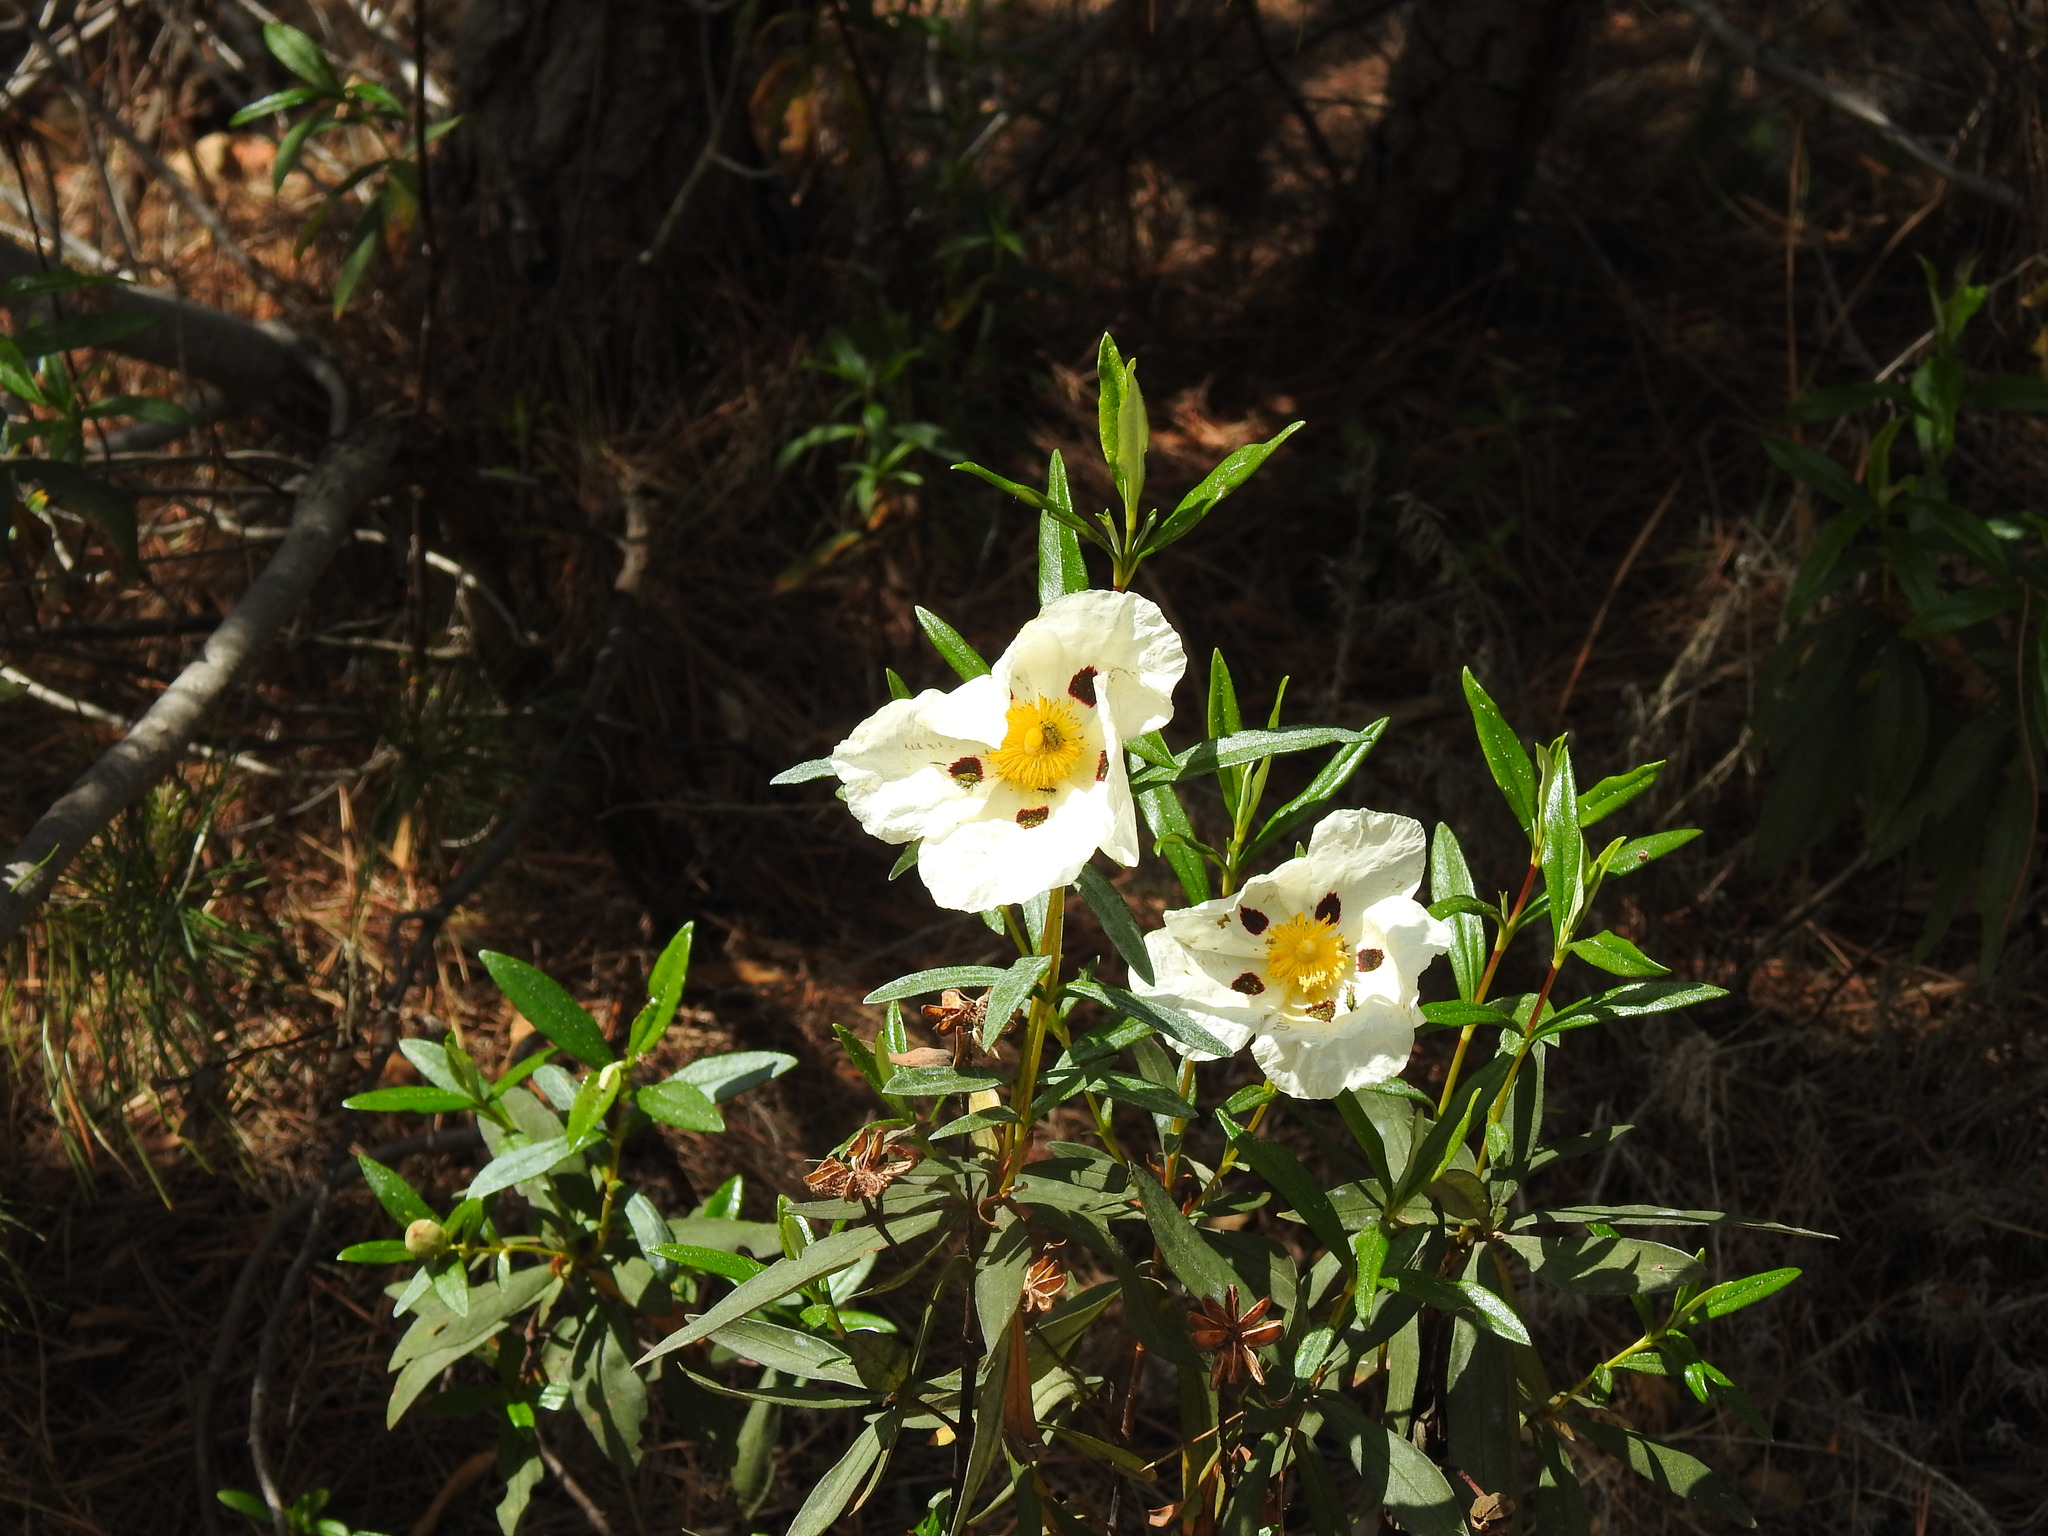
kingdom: Plantae
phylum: Tracheophyta
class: Magnoliopsida
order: Malvales
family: Cistaceae
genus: Cistus
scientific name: Cistus ladanifer
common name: Common gum cistus
